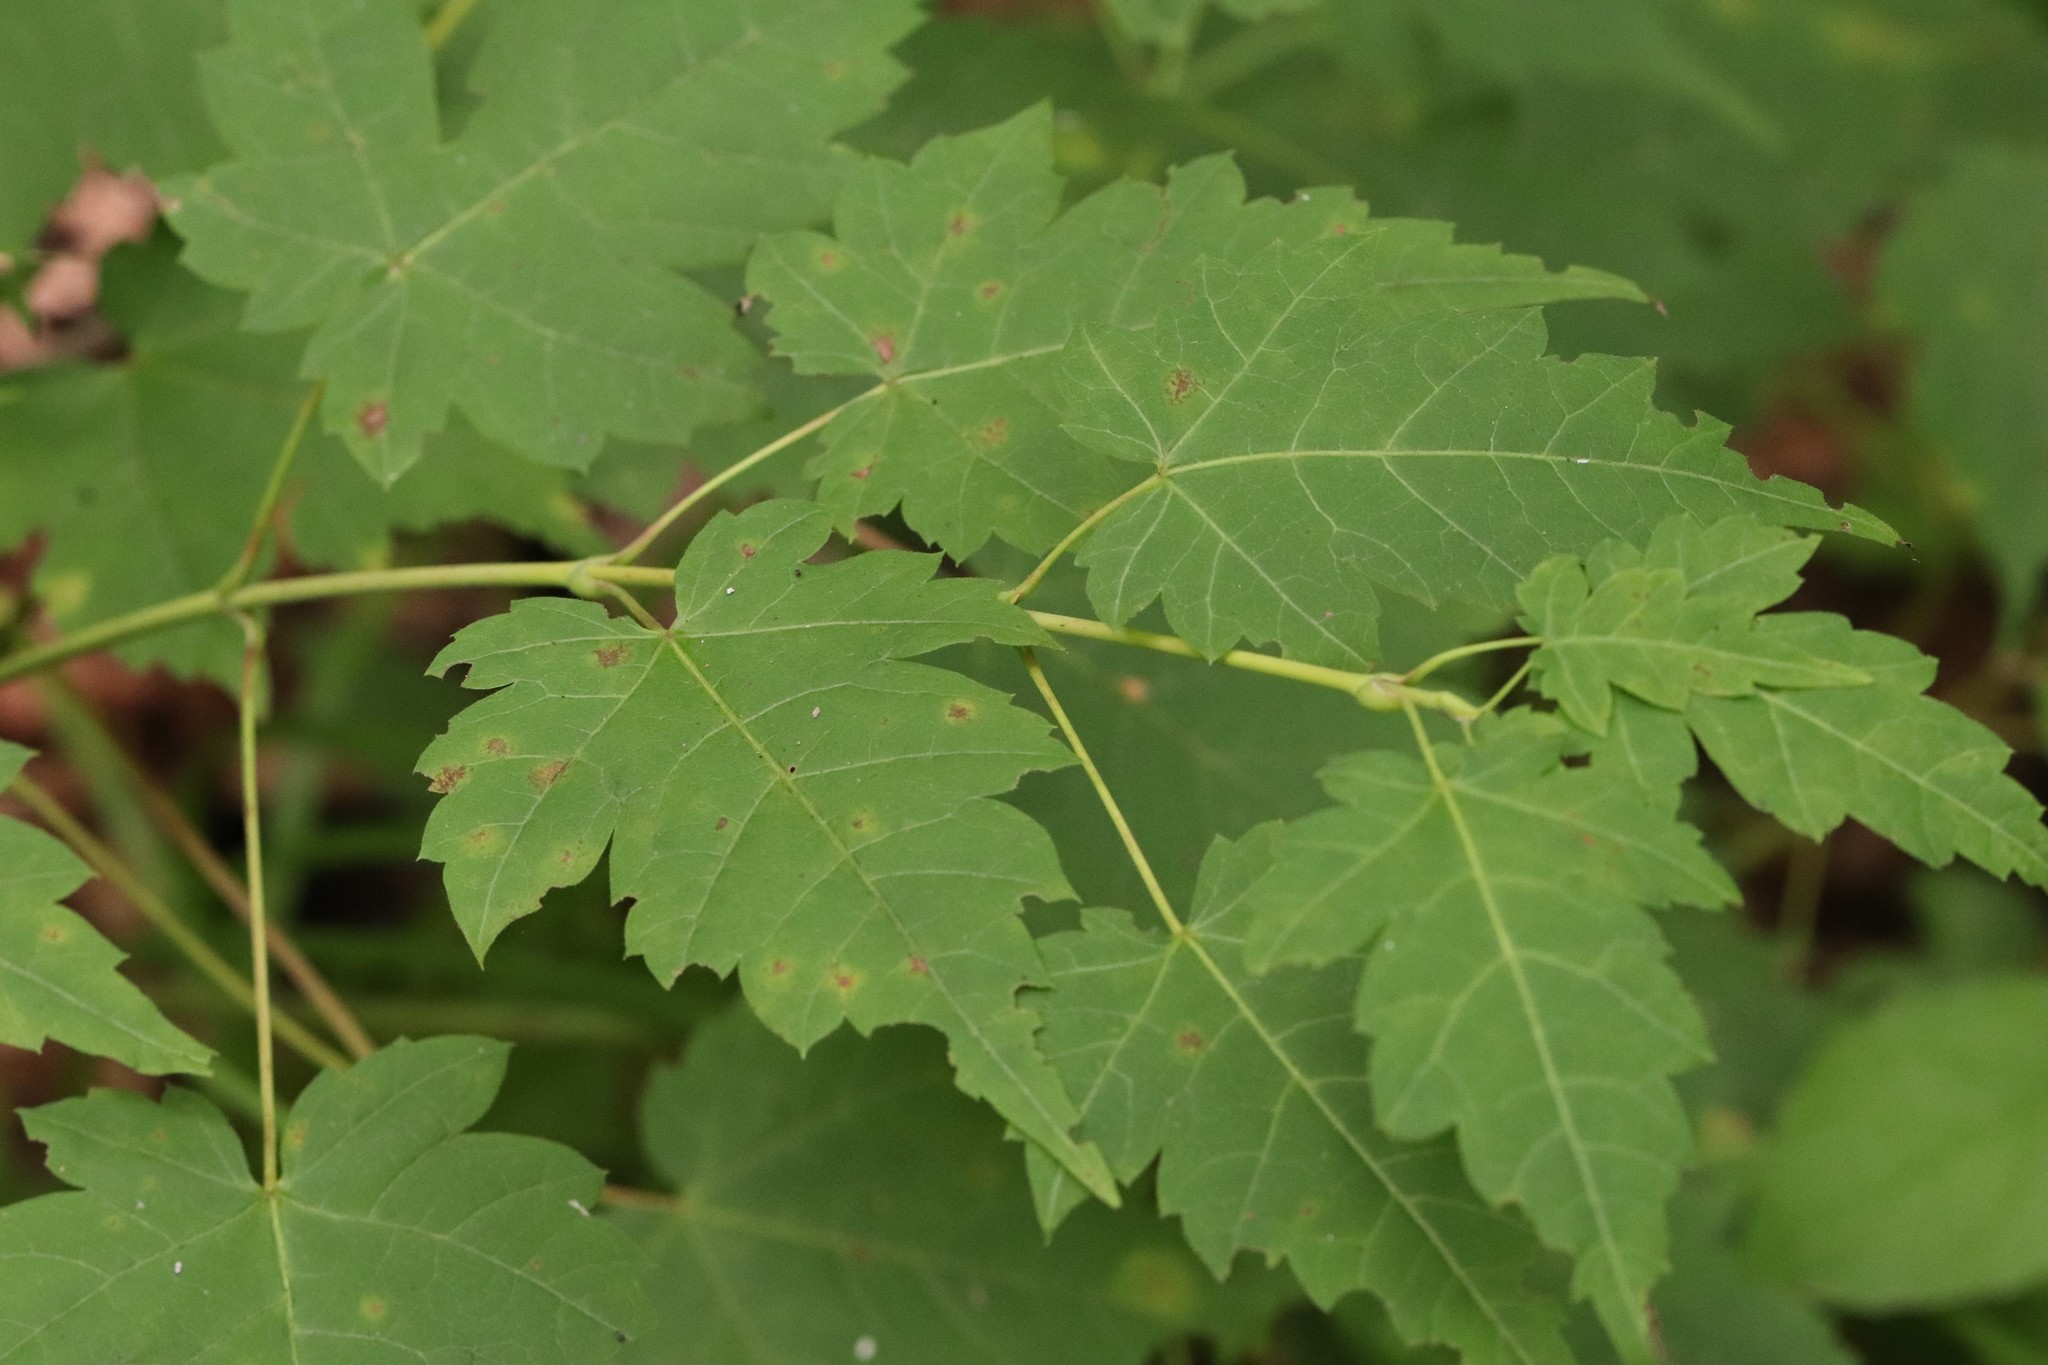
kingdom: Plantae
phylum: Tracheophyta
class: Magnoliopsida
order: Sapindales
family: Sapindaceae
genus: Acer
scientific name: Acer barbinerve
